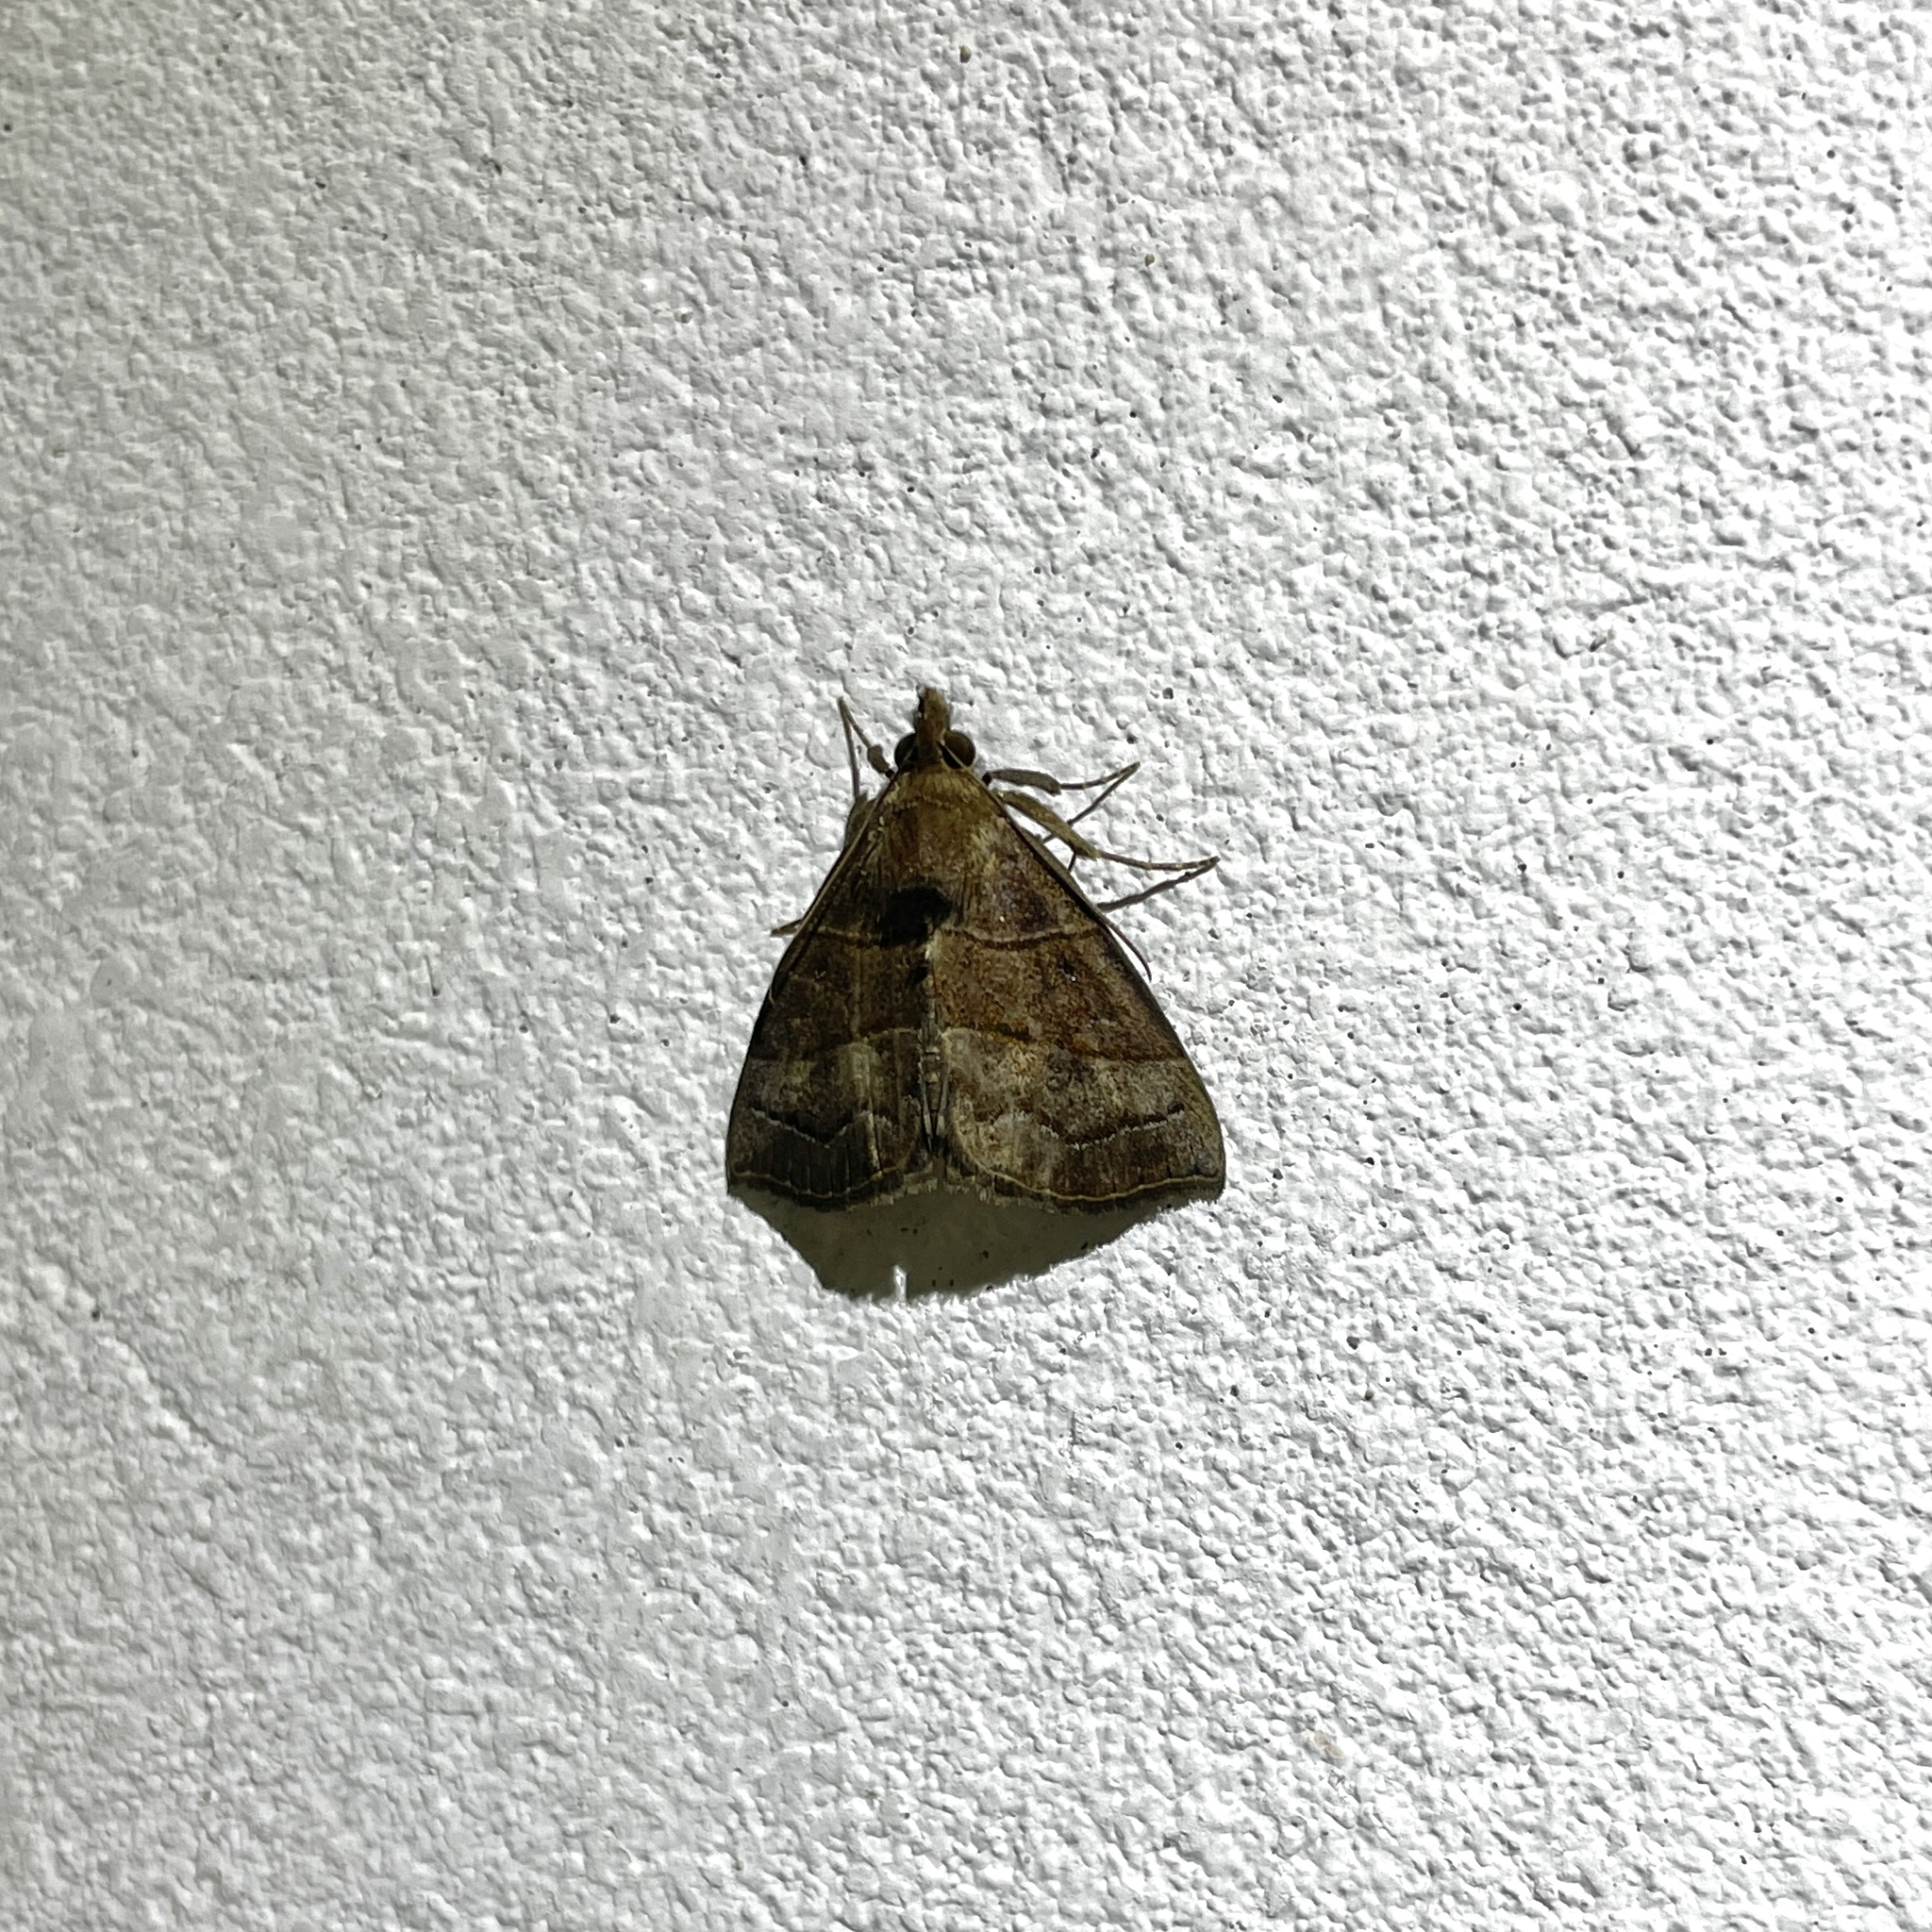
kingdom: Animalia
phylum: Arthropoda
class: Insecta
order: Lepidoptera
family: Erebidae
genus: Hypena
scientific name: Hypena
